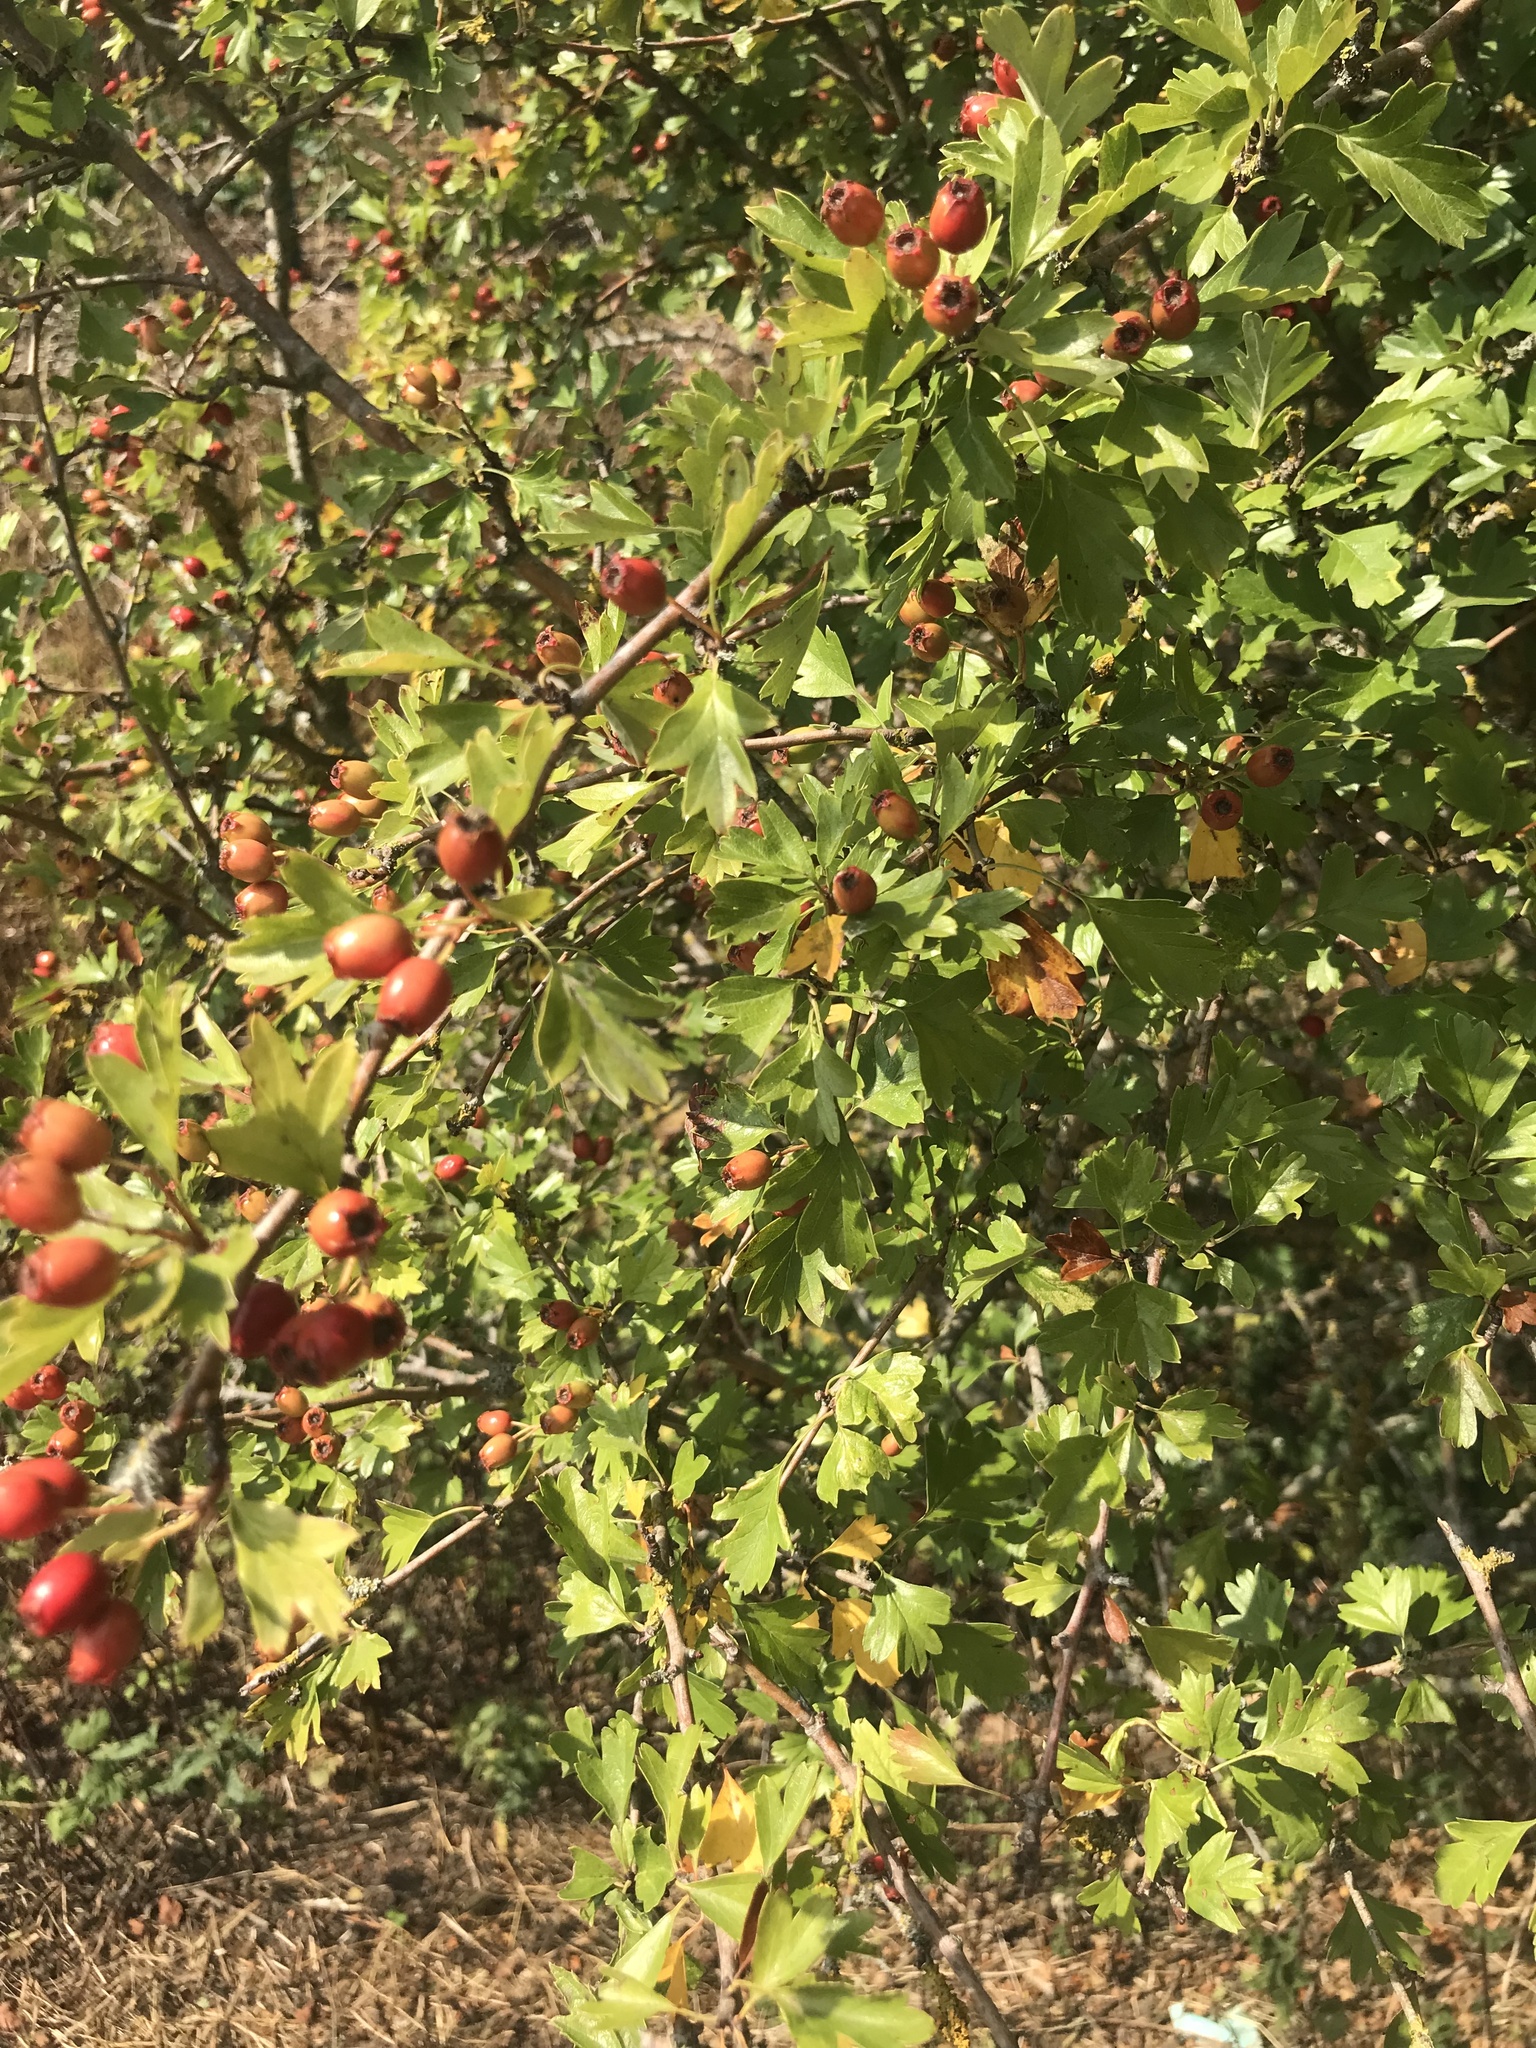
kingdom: Plantae
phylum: Tracheophyta
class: Magnoliopsida
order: Rosales
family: Rosaceae
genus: Crataegus
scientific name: Crataegus monogyna
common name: Hawthorn
